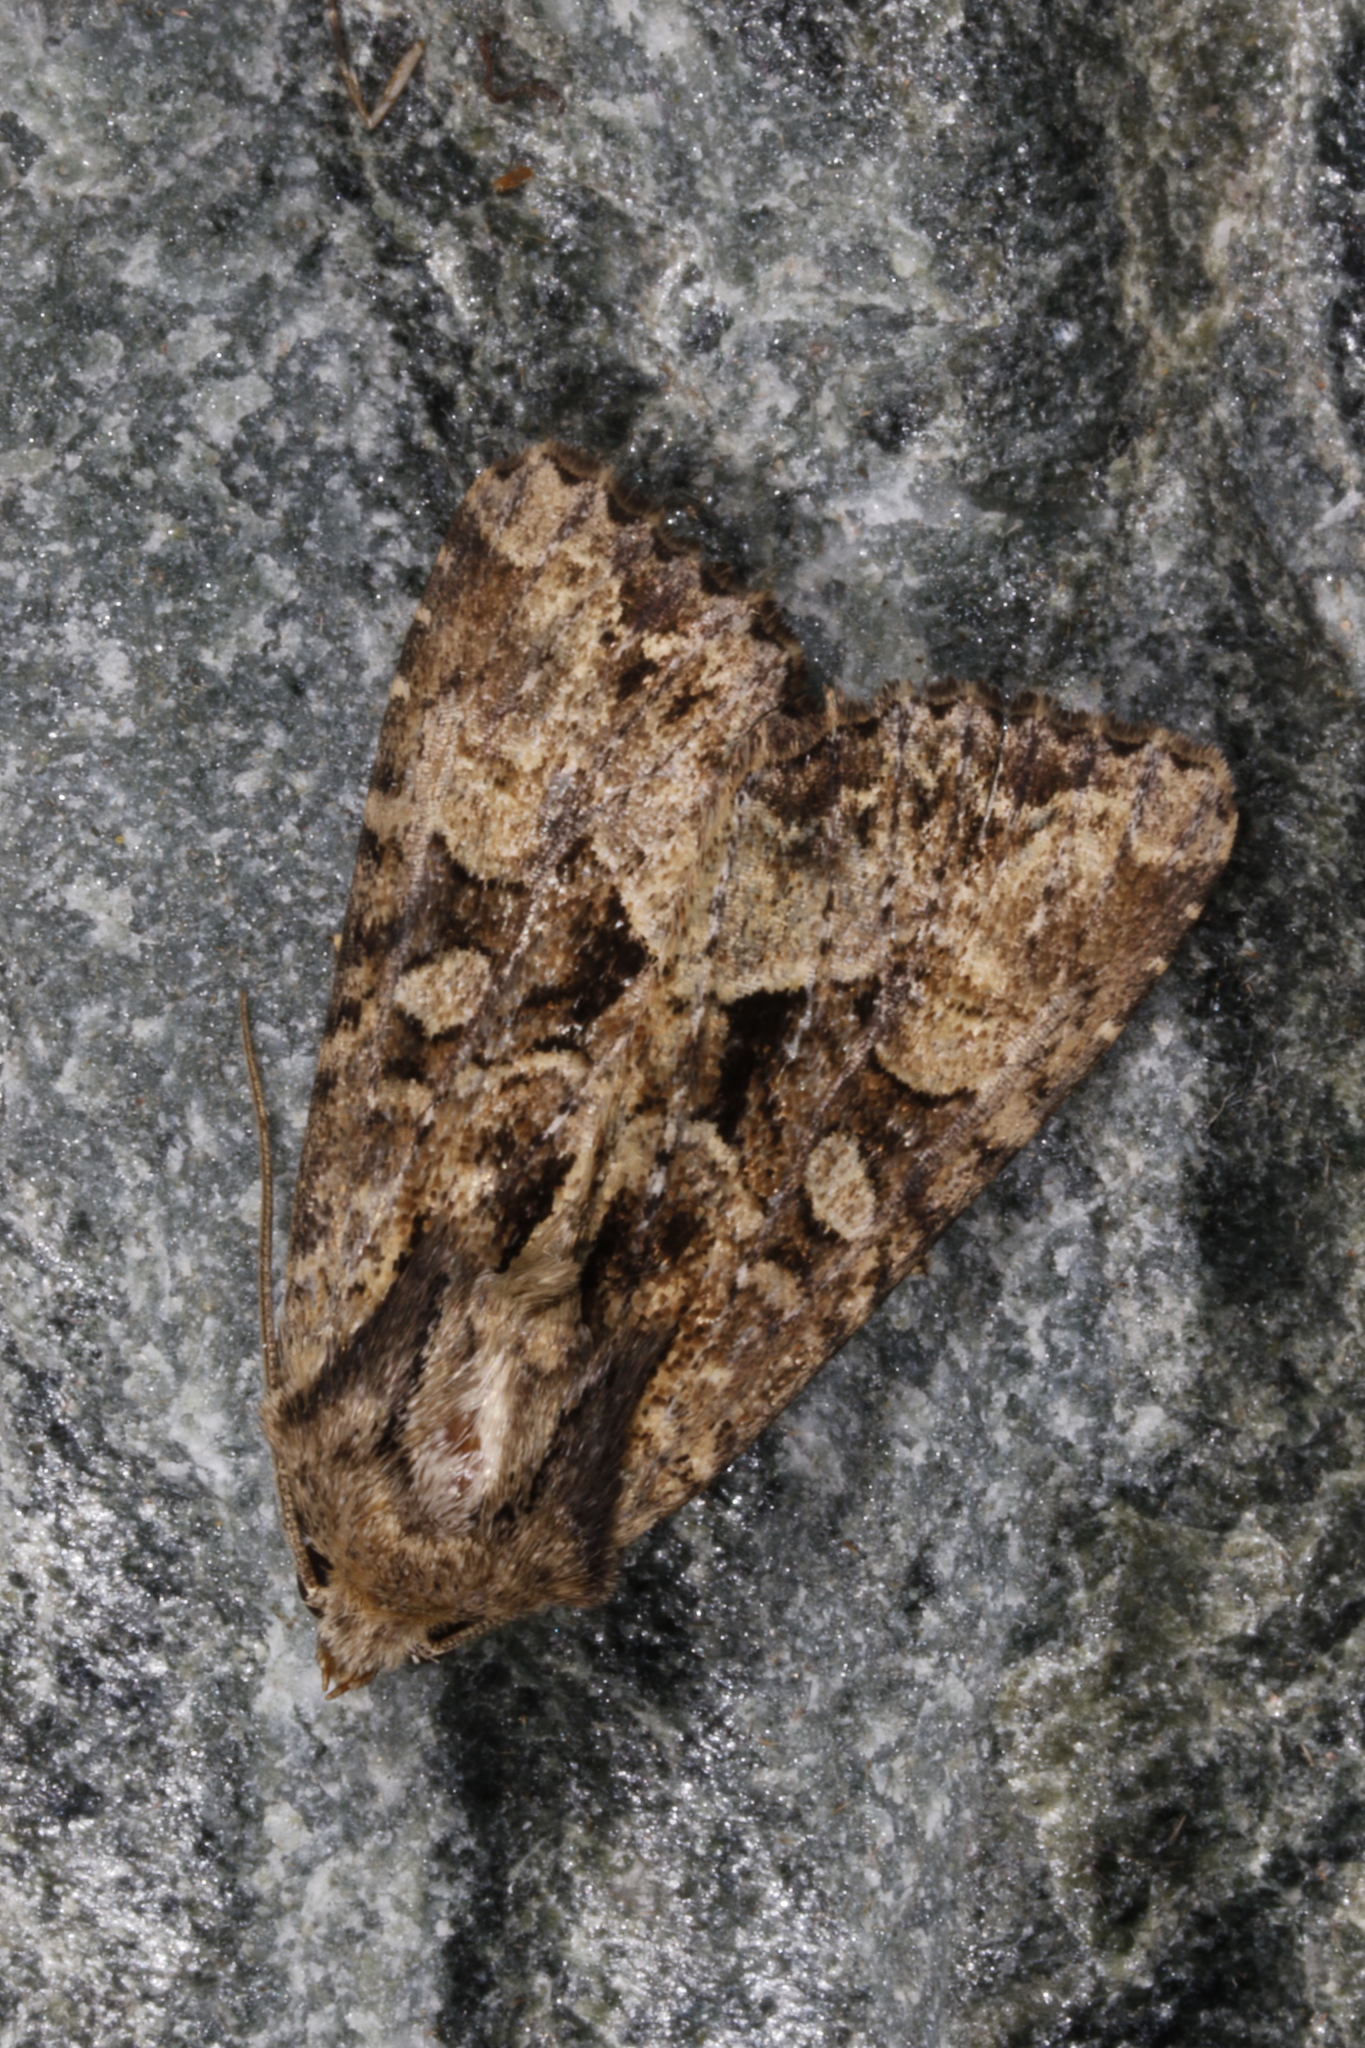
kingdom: Animalia
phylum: Arthropoda
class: Insecta
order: Lepidoptera
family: Noctuidae
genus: Apamea
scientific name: Apamea remissa
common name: Dusky brocade
